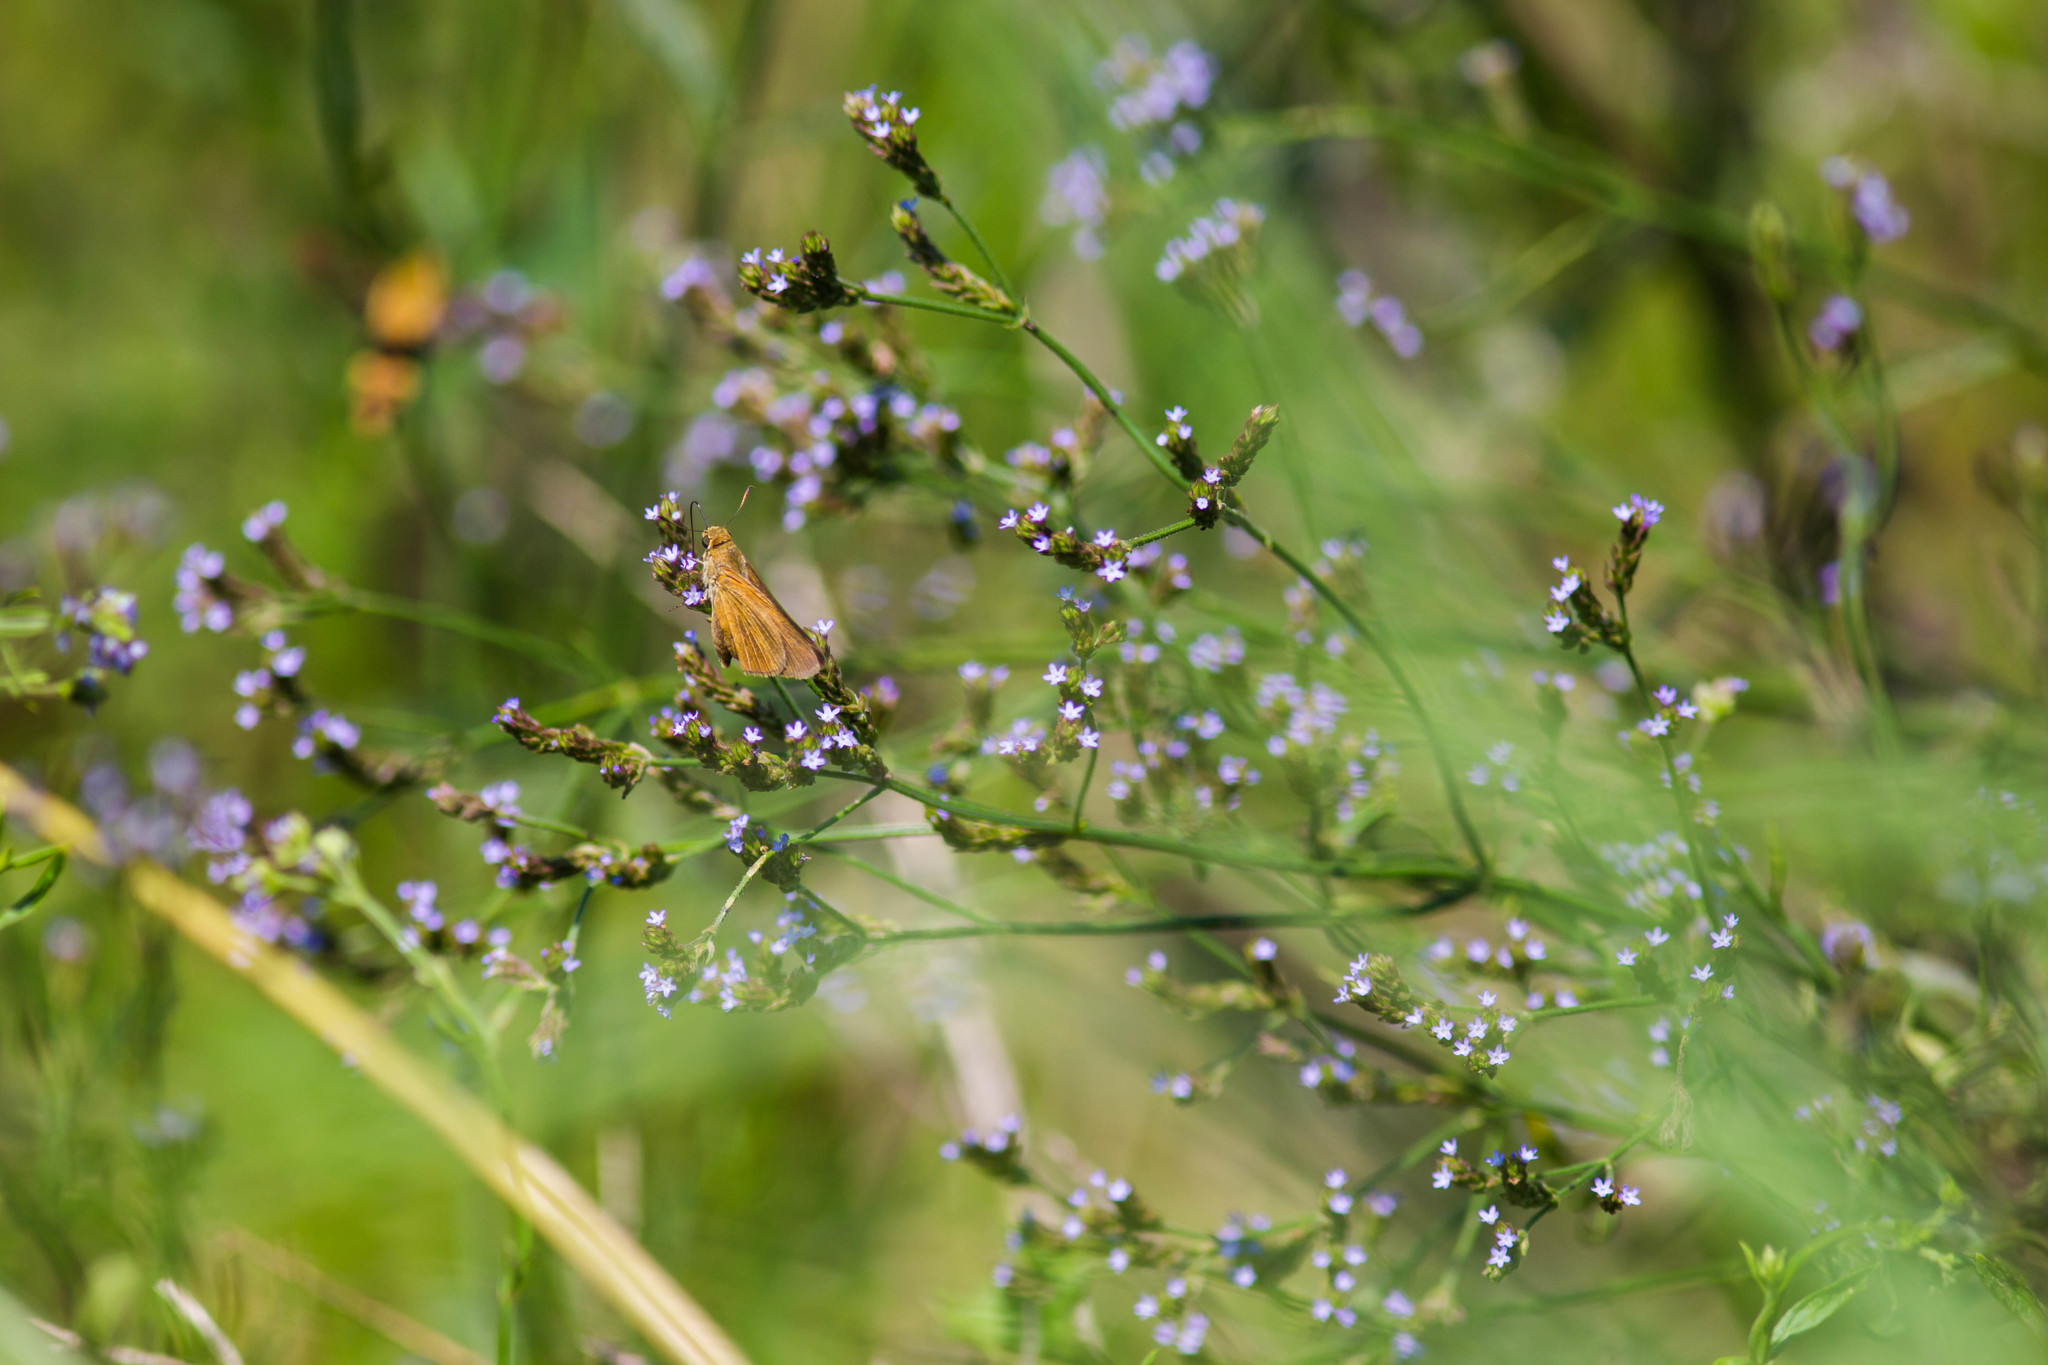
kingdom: Animalia
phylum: Arthropoda
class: Insecta
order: Lepidoptera
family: Hesperiidae
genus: Euphyes
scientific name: Euphyes dion
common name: Dion skipper
